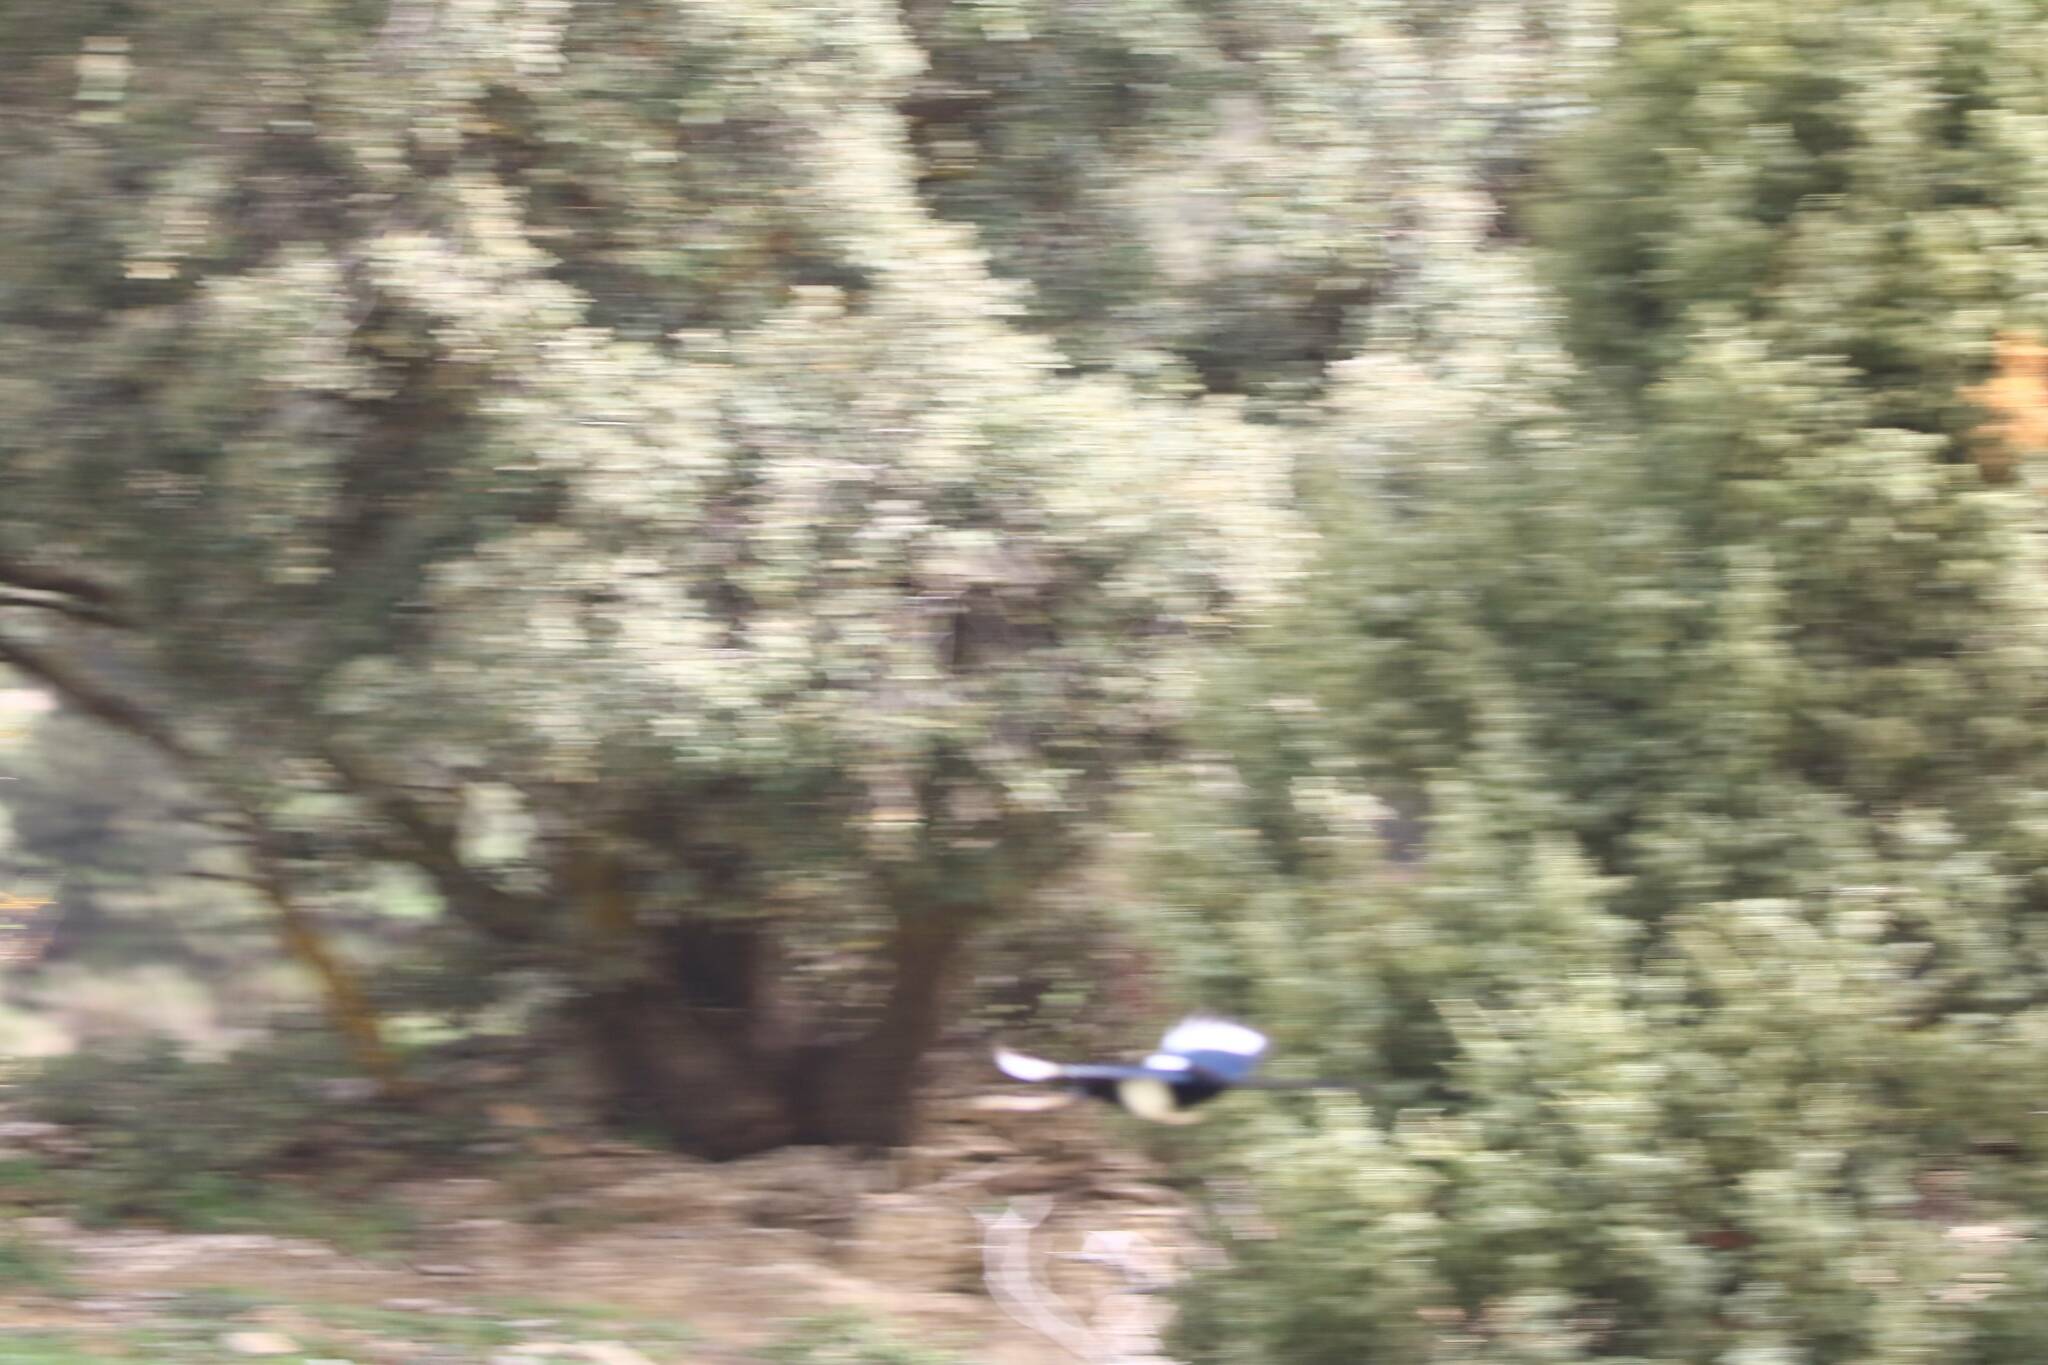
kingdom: Animalia
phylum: Chordata
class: Aves
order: Passeriformes
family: Corvidae
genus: Pica
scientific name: Pica mauritanica
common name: Maghreb magpie
